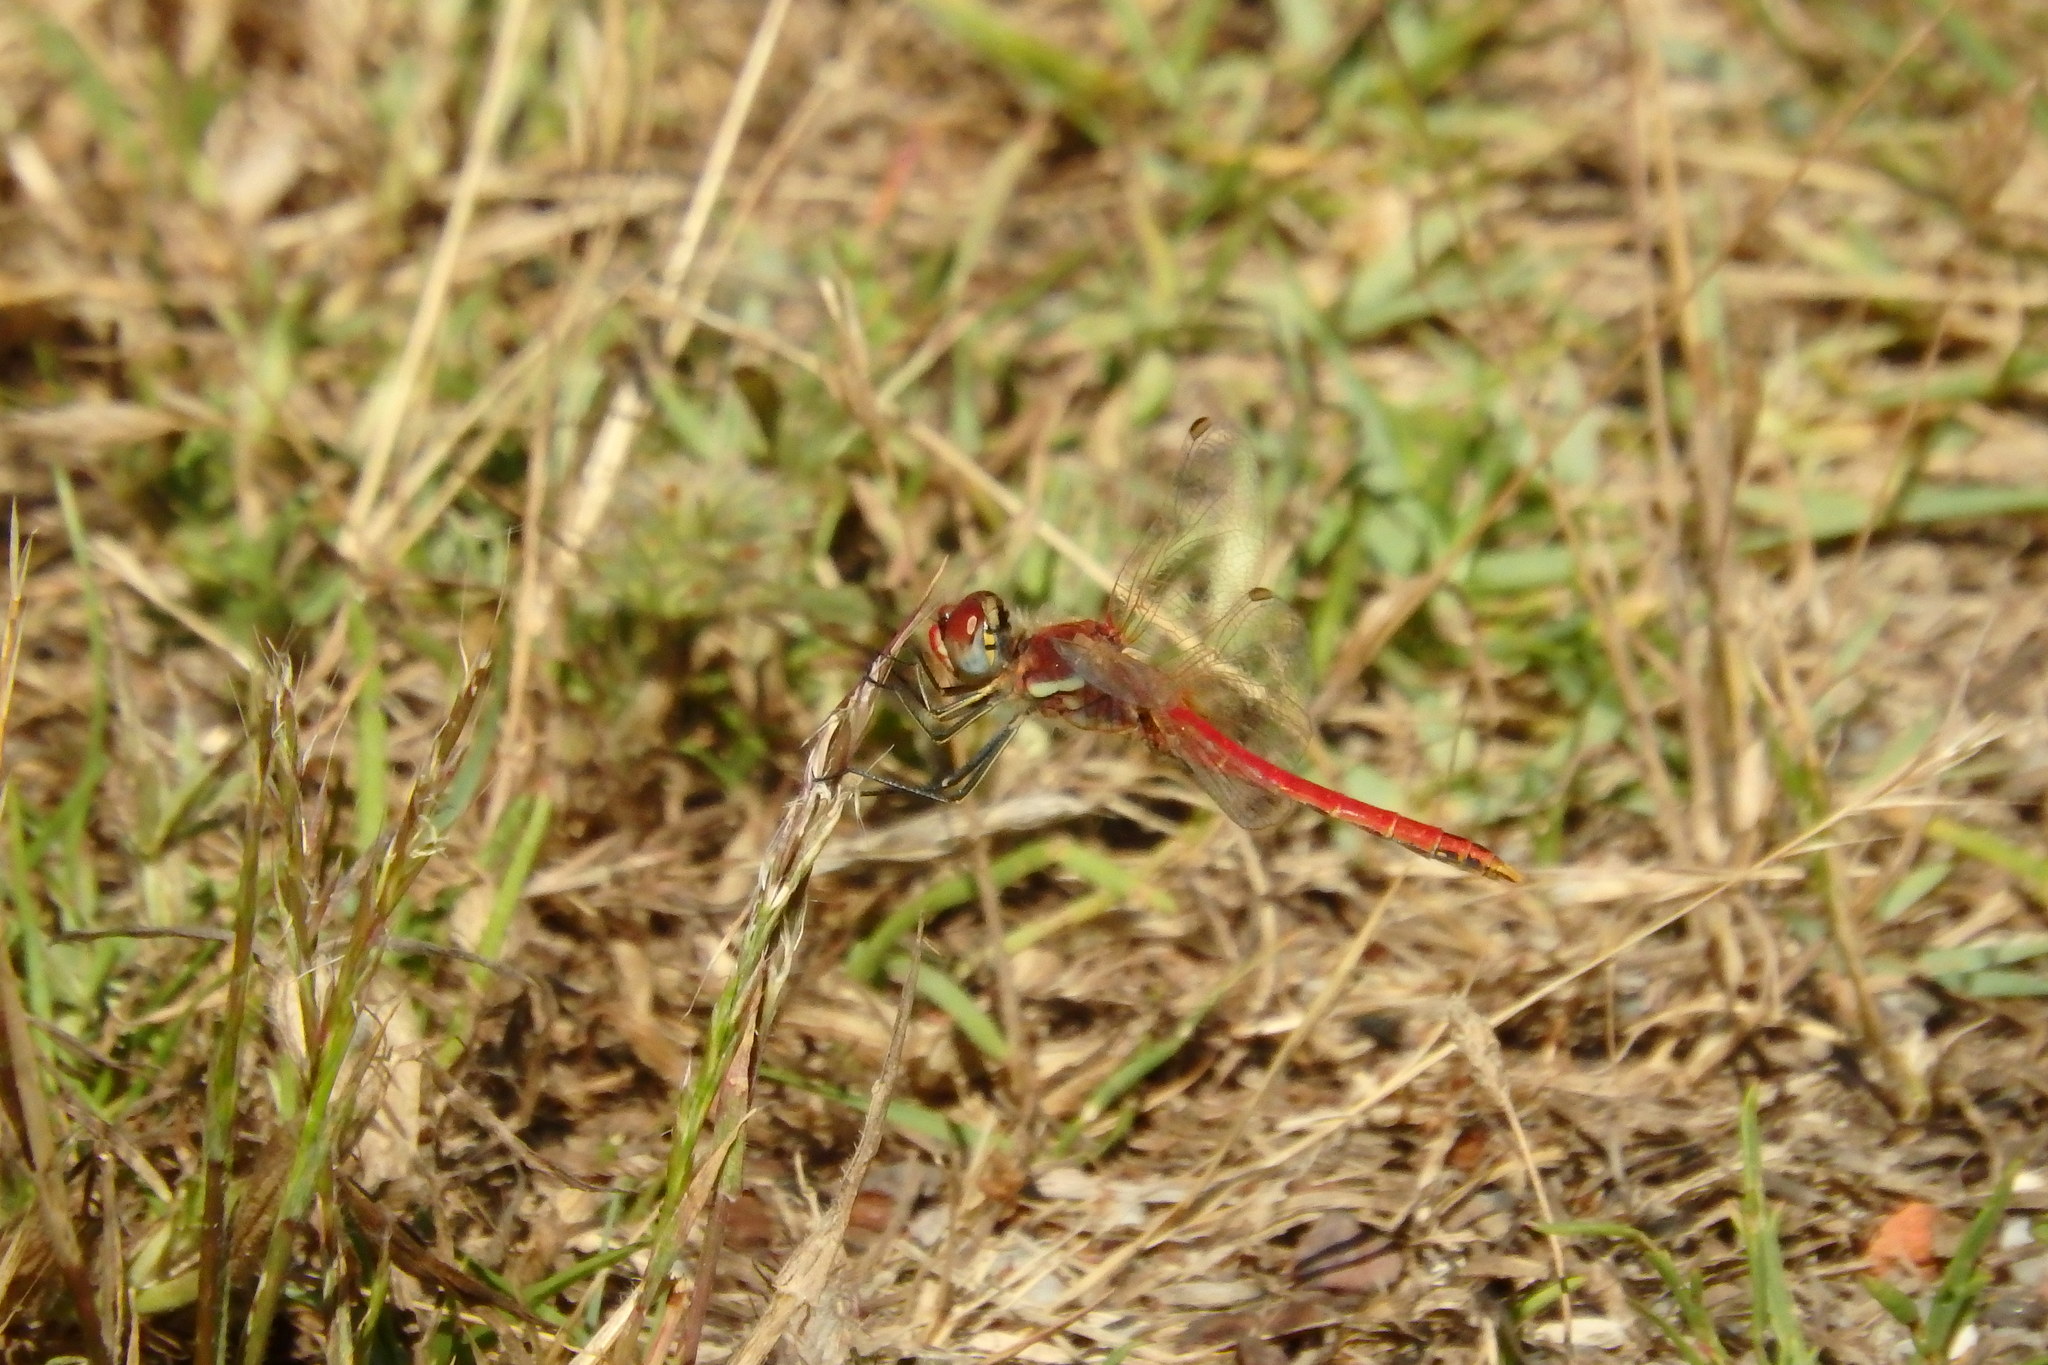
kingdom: Animalia
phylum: Arthropoda
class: Insecta
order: Odonata
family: Libellulidae
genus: Sympetrum
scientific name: Sympetrum fonscolombii
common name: Red-veined darter
